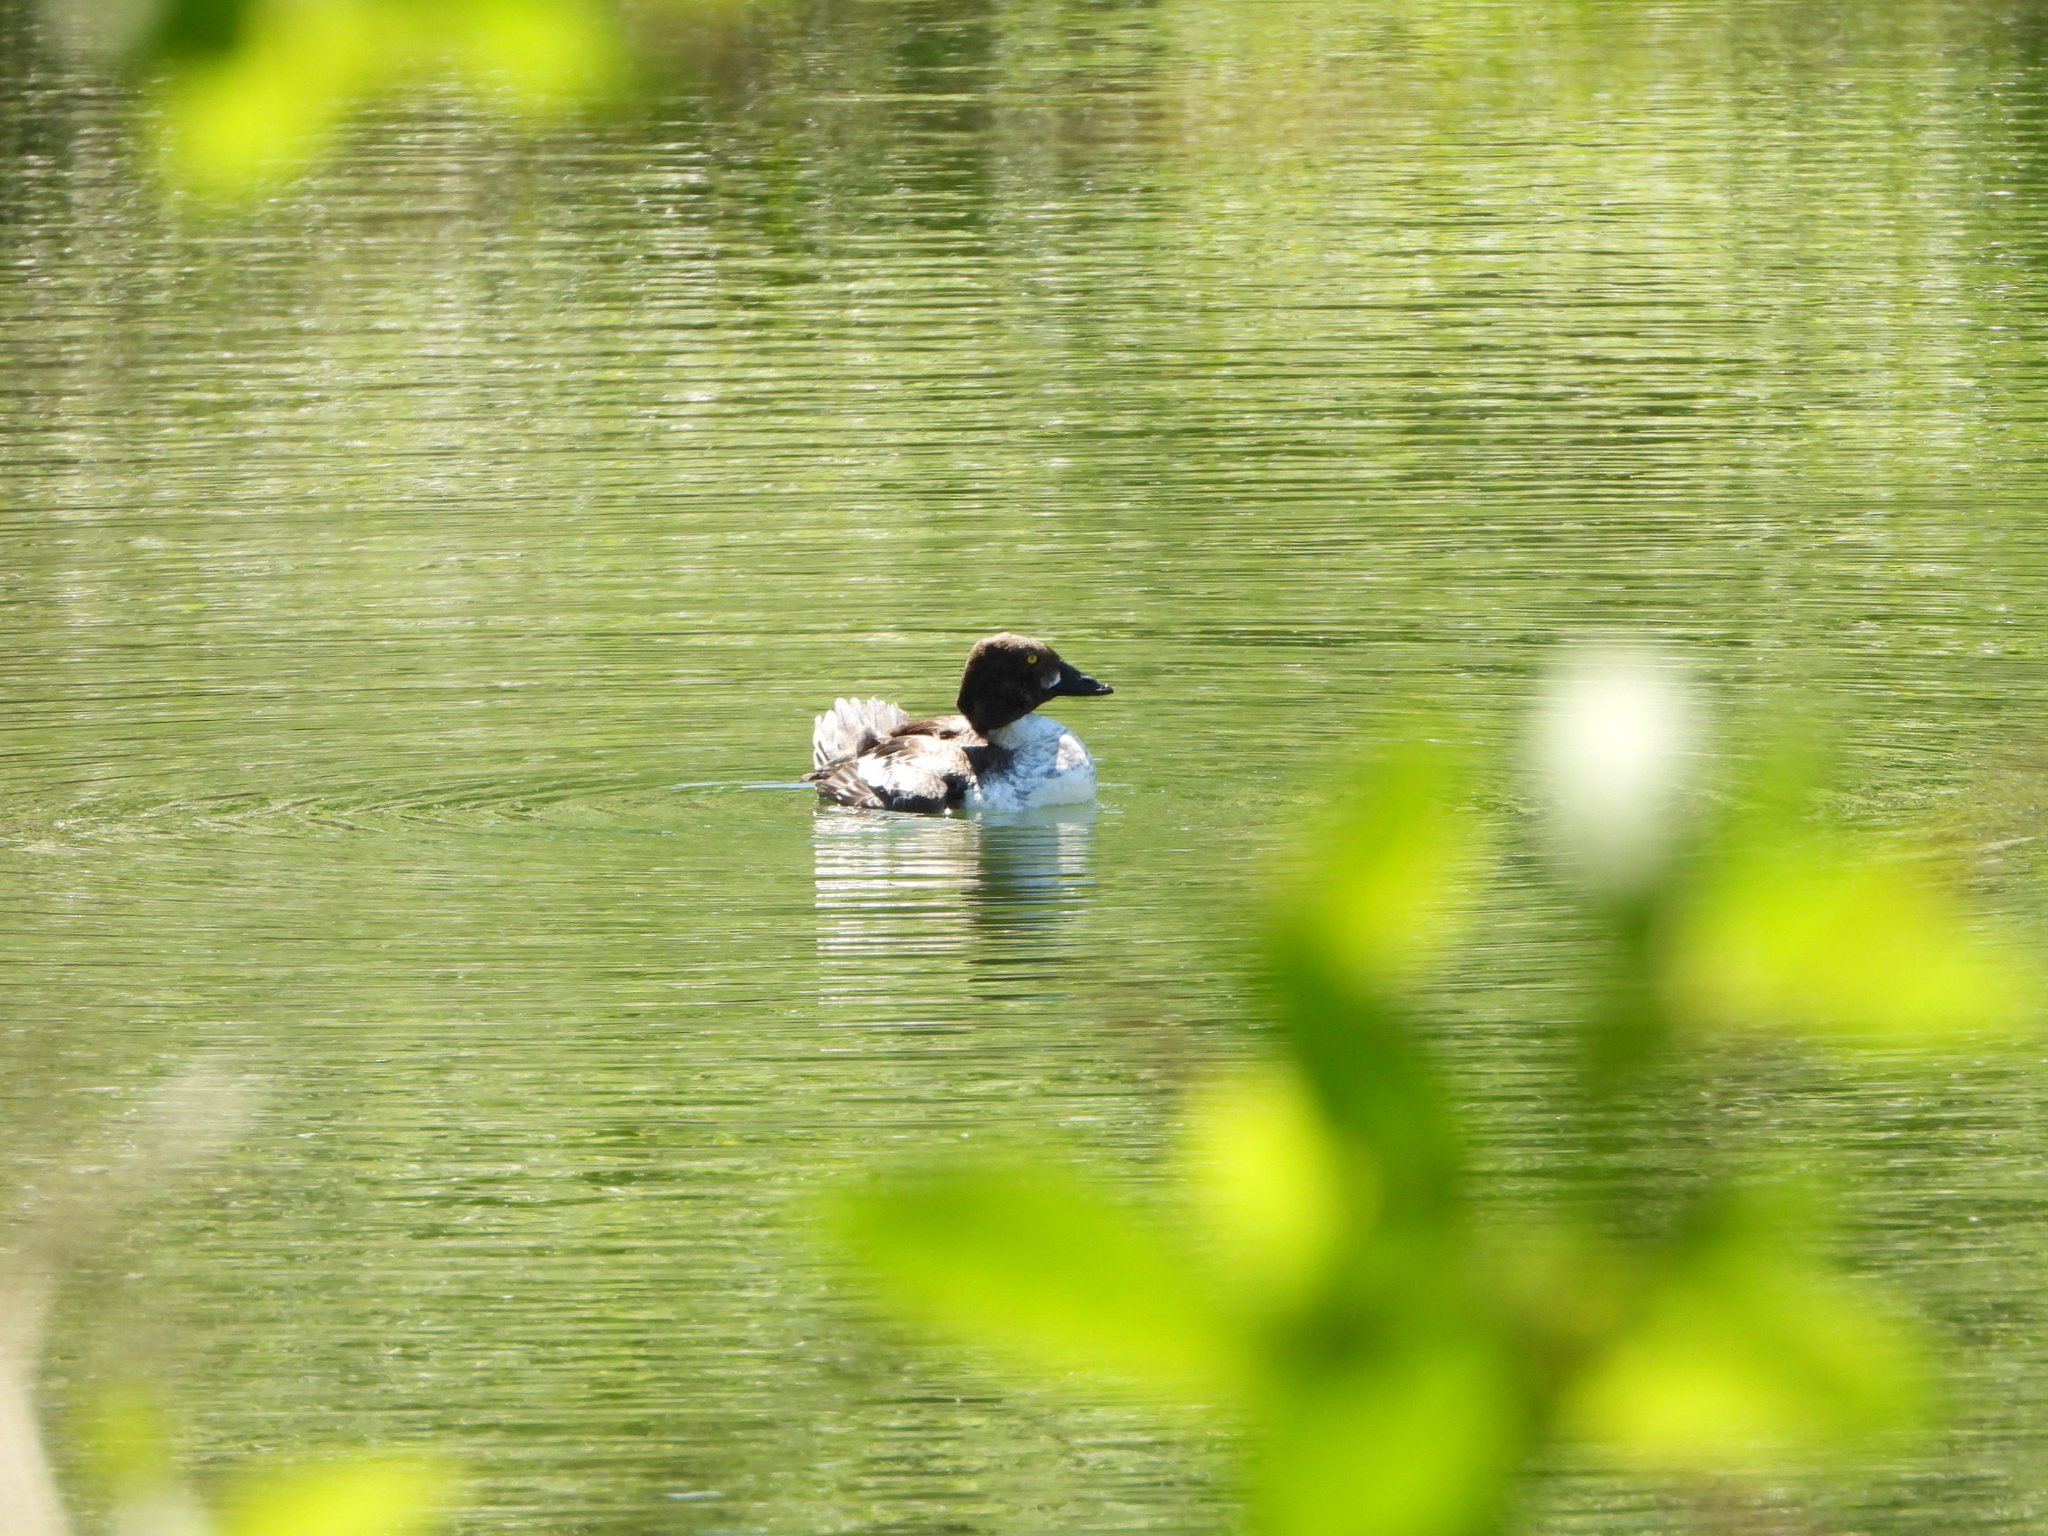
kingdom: Animalia
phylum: Chordata
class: Aves
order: Anseriformes
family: Anatidae
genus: Bucephala
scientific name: Bucephala clangula
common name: Common goldeneye
